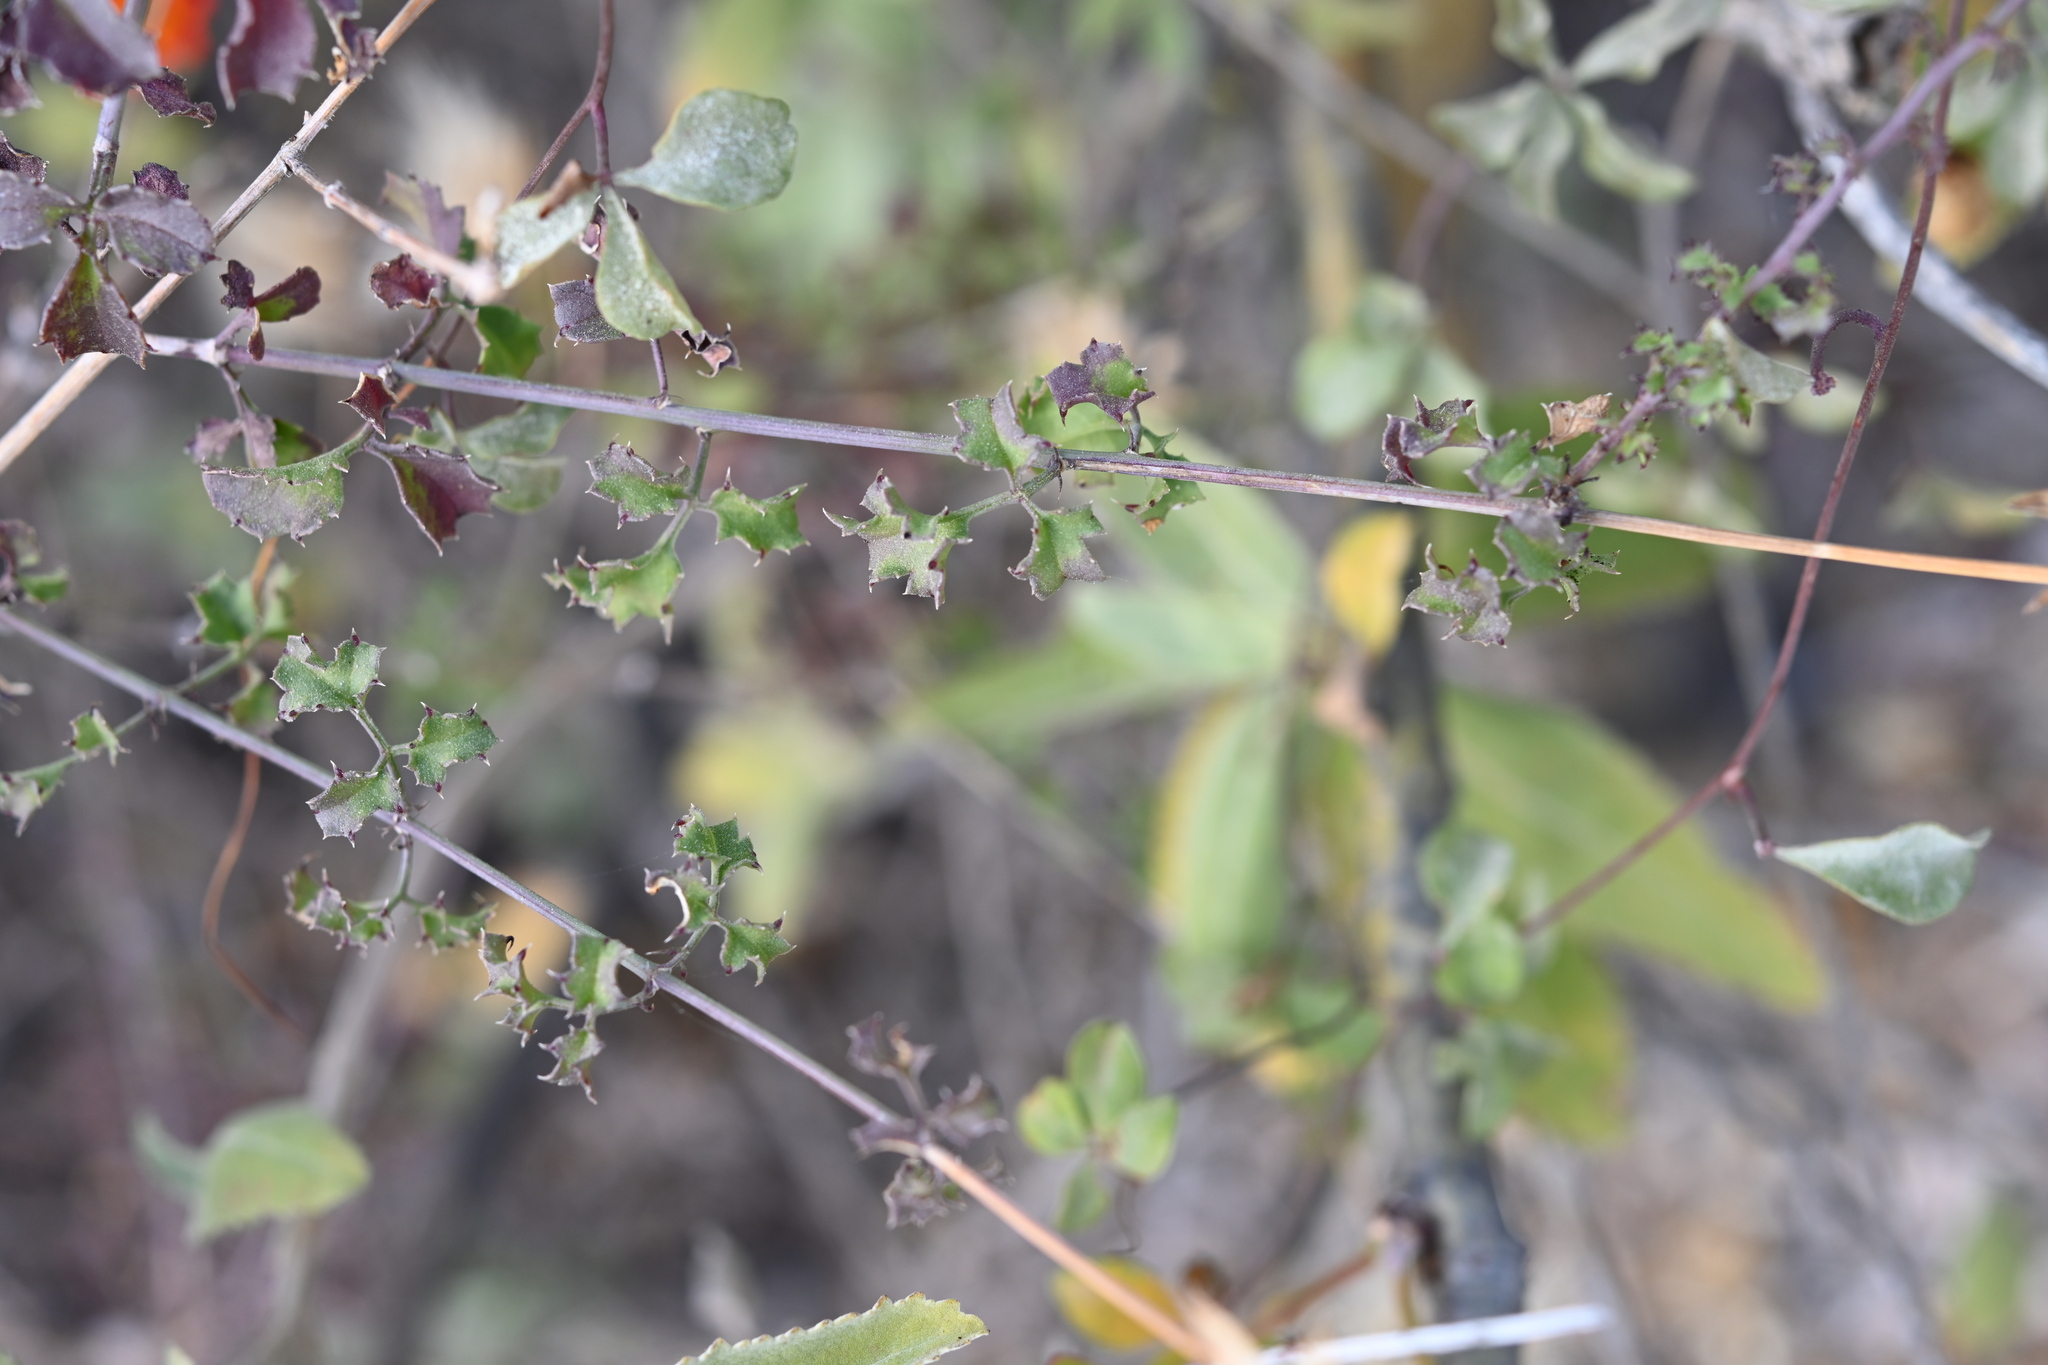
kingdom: Plantae
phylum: Tracheophyta
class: Magnoliopsida
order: Asterales
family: Asteraceae
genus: Adenophyllum
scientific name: Adenophyllum speciosum
